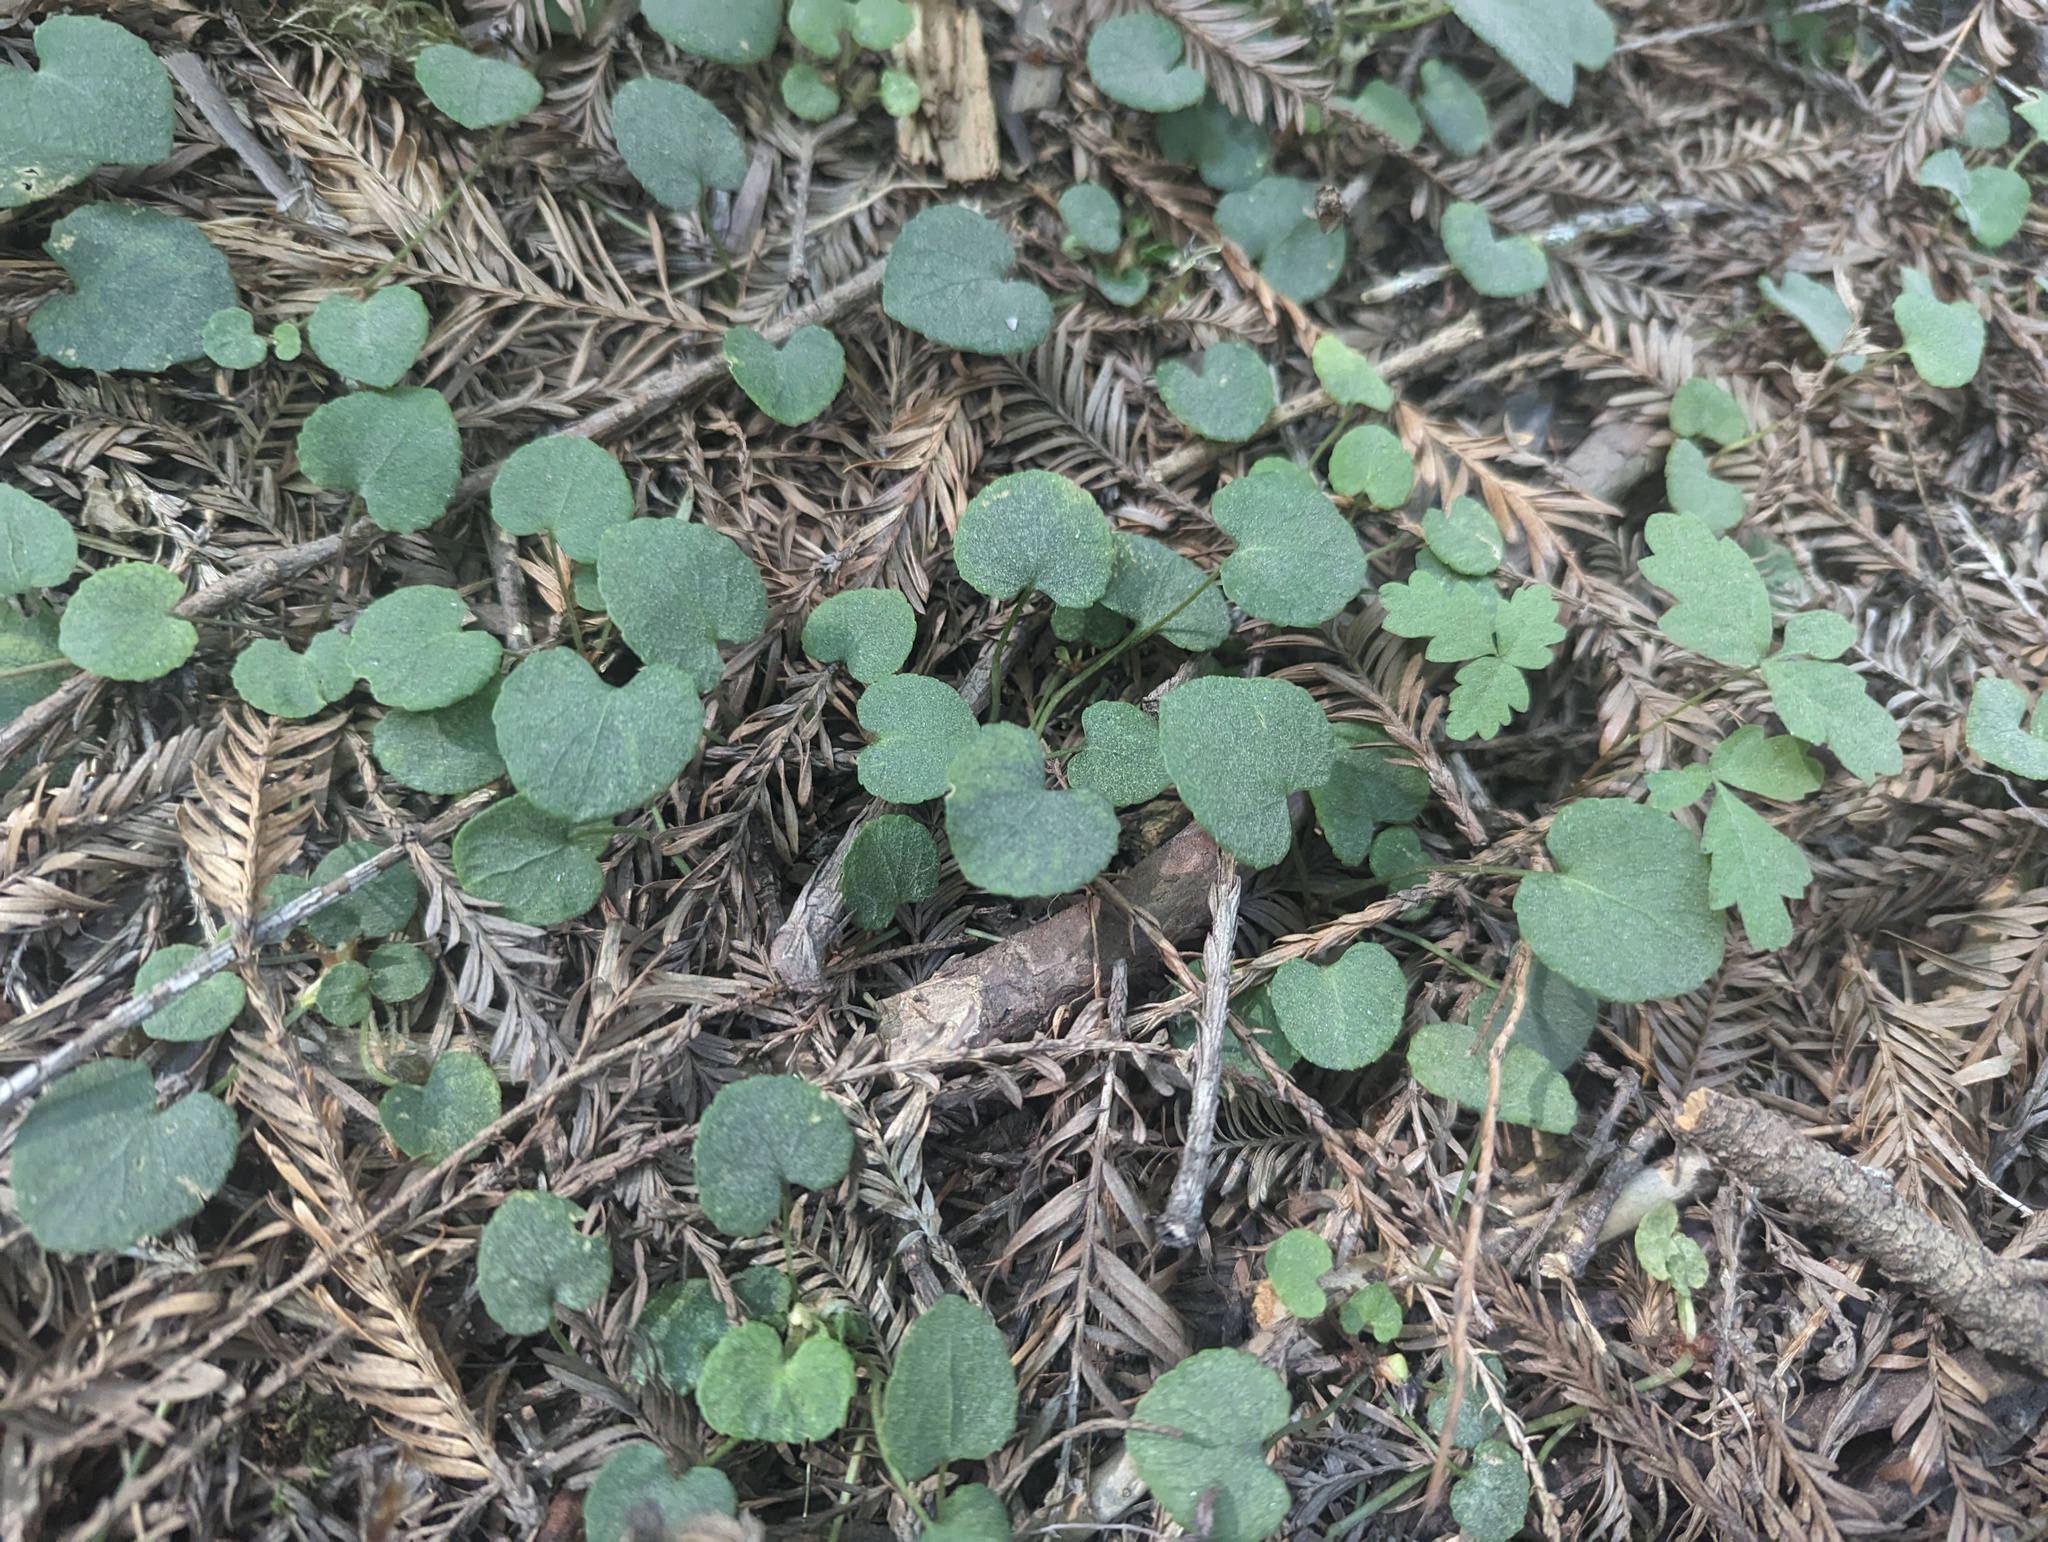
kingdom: Plantae
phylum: Tracheophyta
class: Magnoliopsida
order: Malpighiales
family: Violaceae
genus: Viola
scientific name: Viola sempervirens
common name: Evergreen violet
